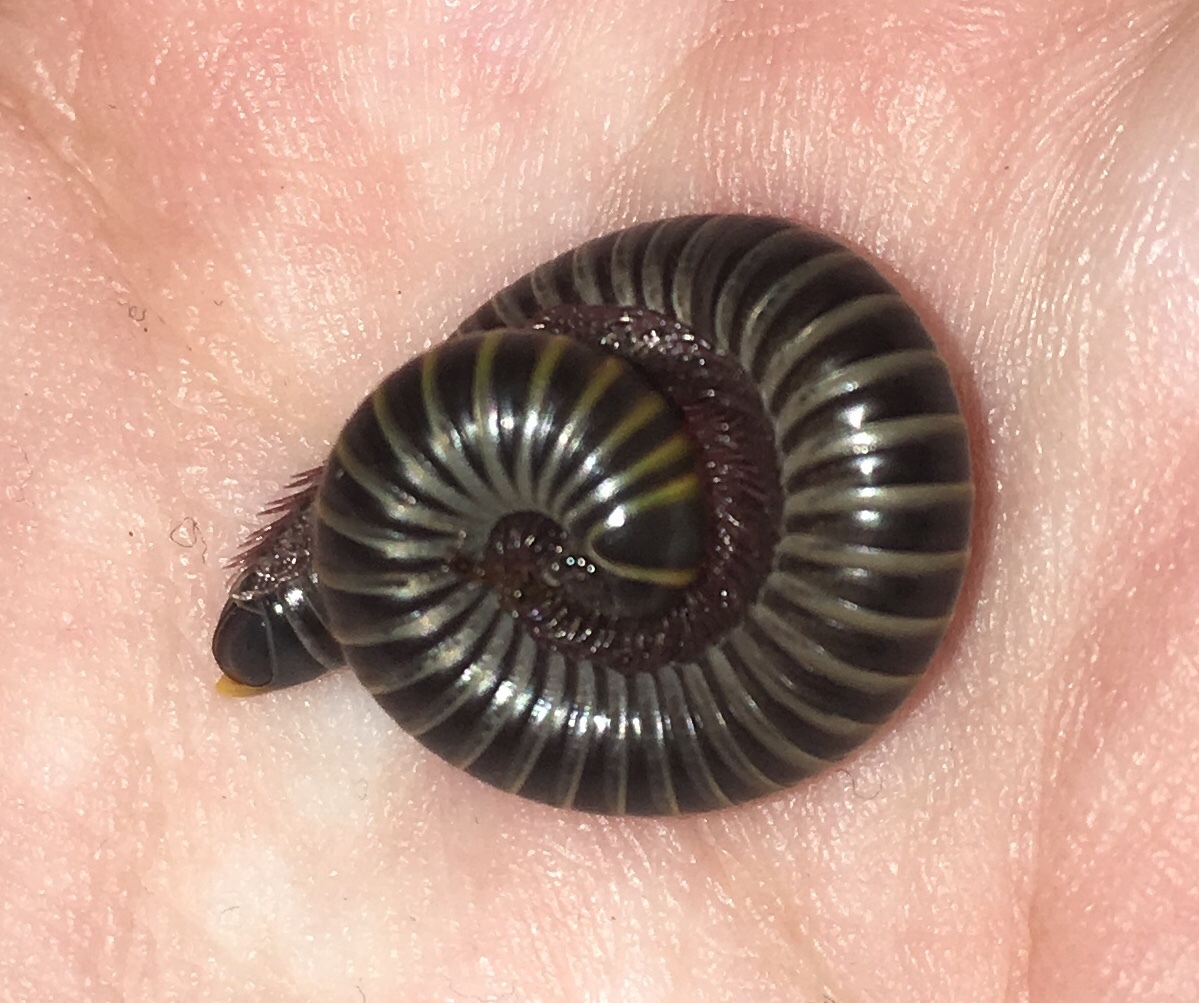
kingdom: Animalia
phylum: Arthropoda
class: Diplopoda
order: Spirobolida
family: Rhinocricidae
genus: Anadenobolus
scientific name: Anadenobolus monilicornis
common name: Caribbean millipede
